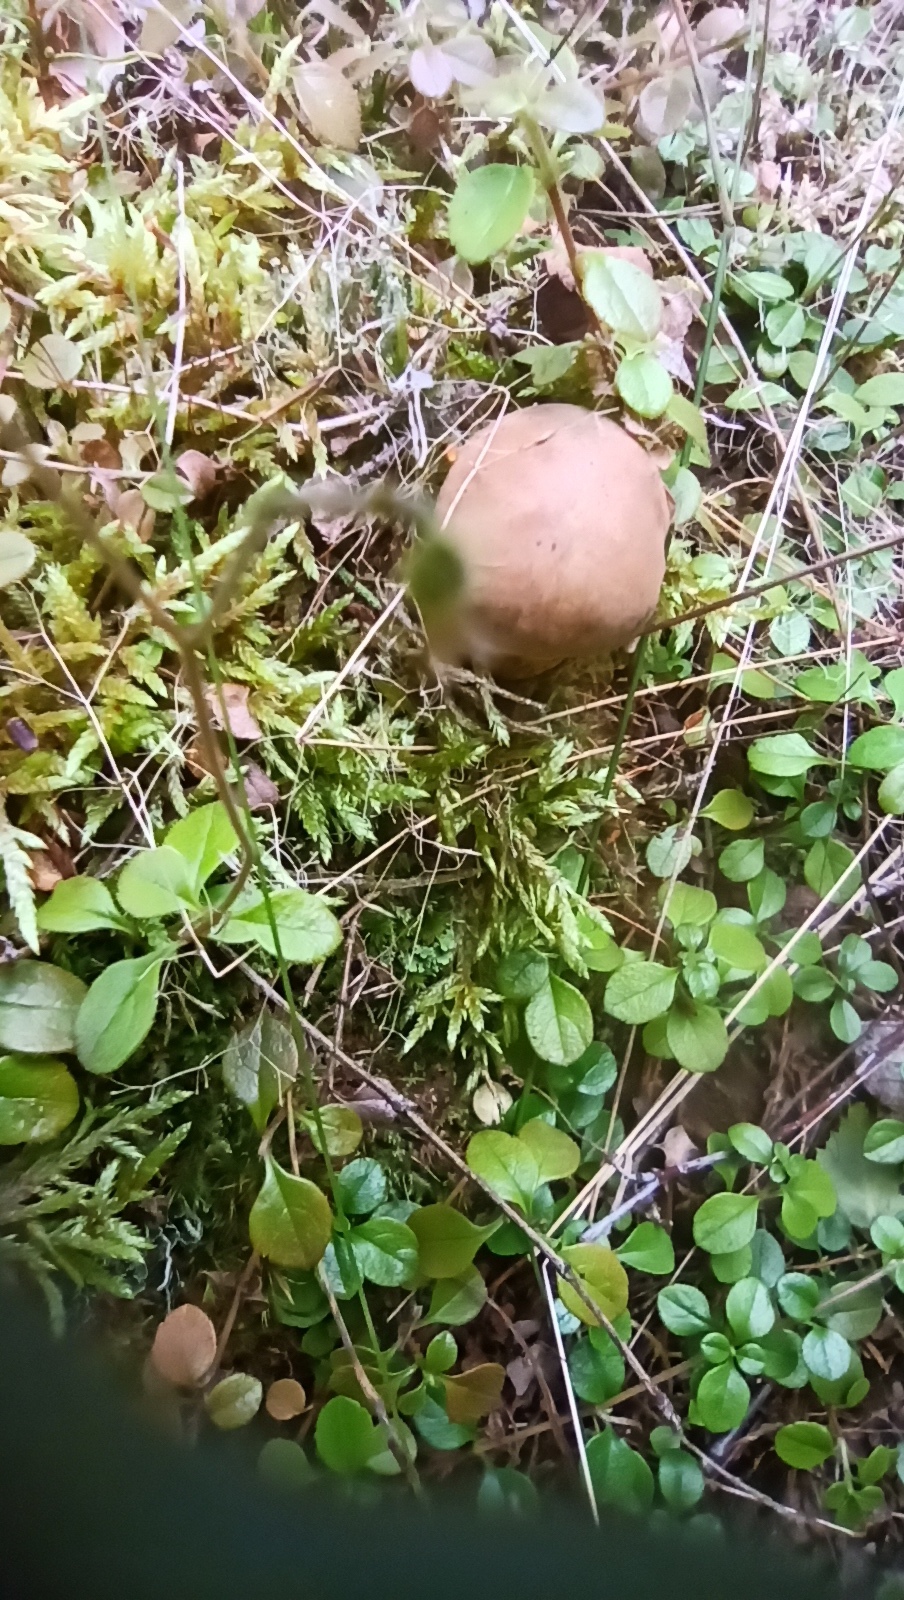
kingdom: Fungi
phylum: Basidiomycota
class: Agaricomycetes
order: Boletales
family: Boletaceae
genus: Tylopilus
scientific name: Tylopilus felleus
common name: Bitter bolete
